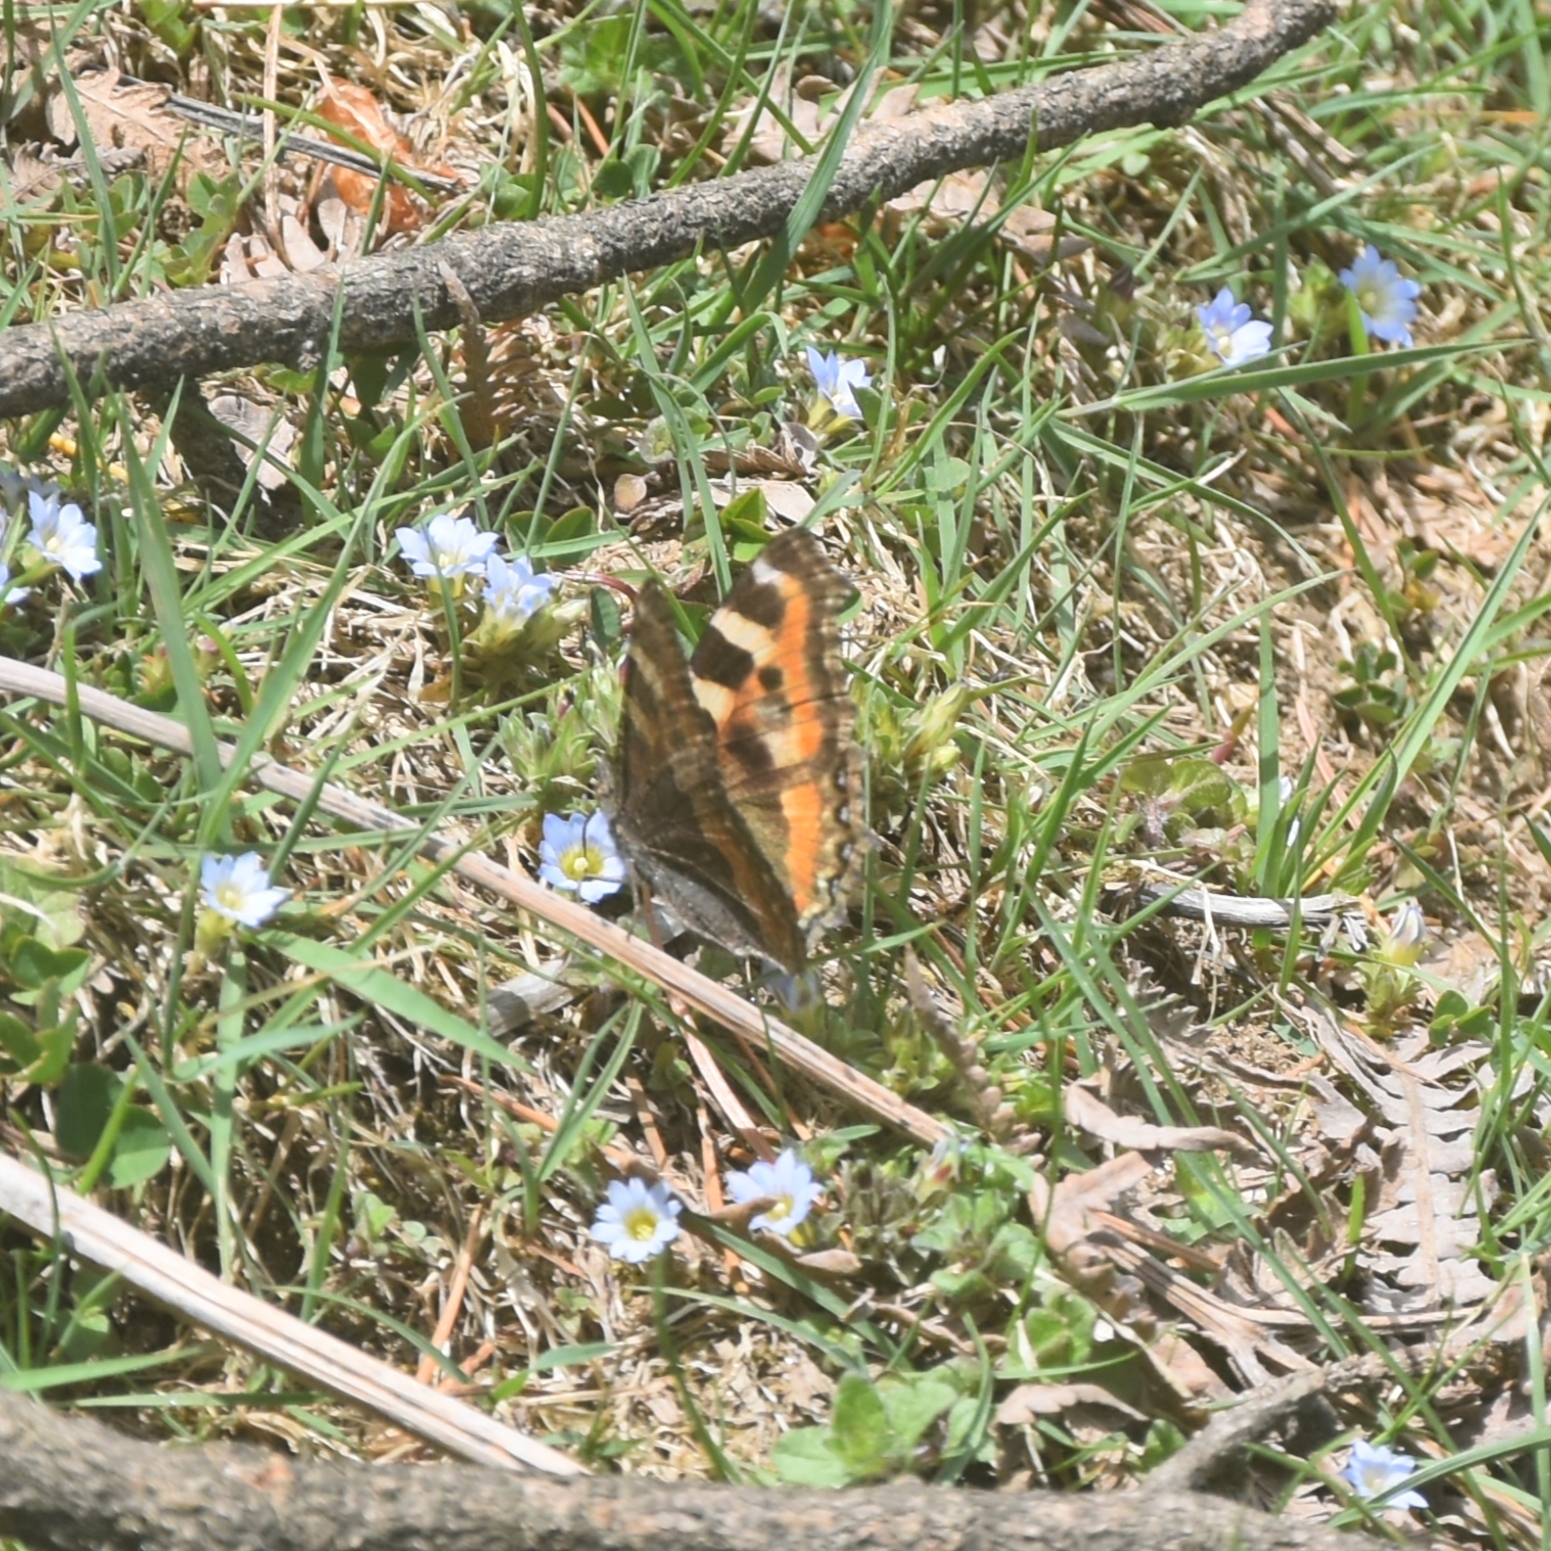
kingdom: Animalia
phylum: Arthropoda
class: Insecta
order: Lepidoptera
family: Nymphalidae
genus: Aglais
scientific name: Aglais caschmirensis
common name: Indian tortoiseshell
